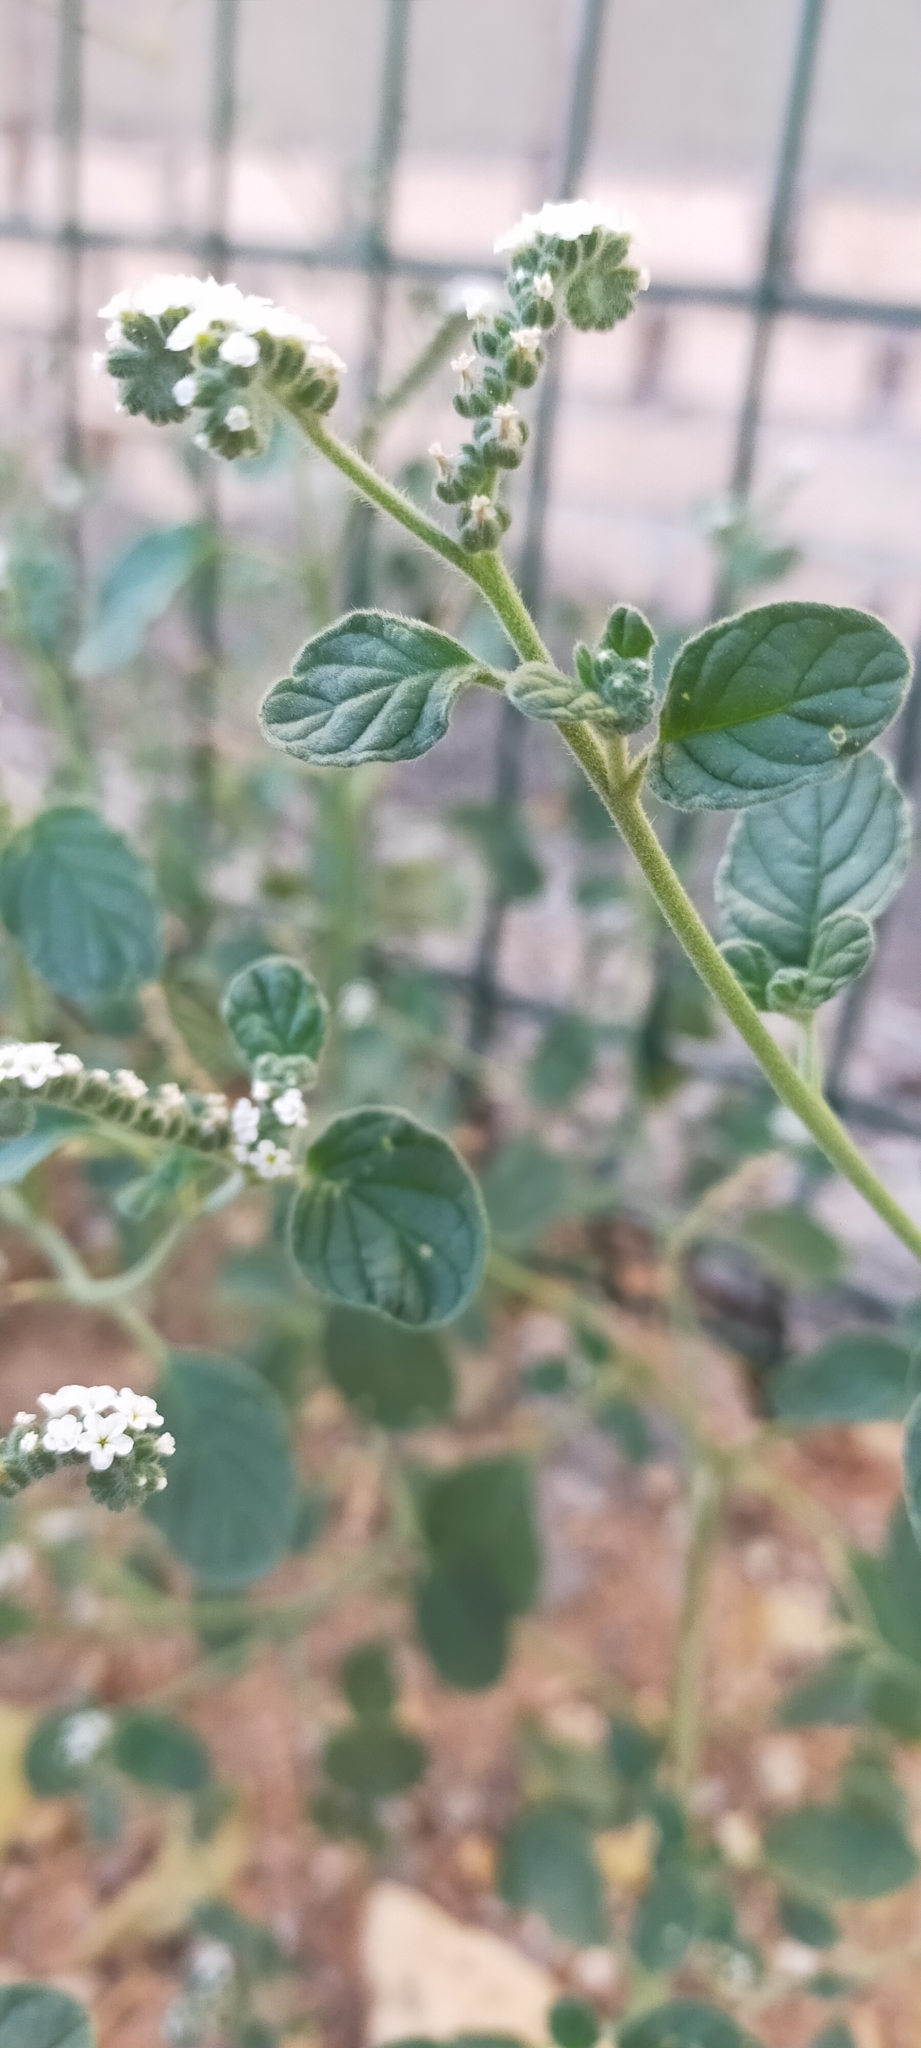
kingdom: Plantae
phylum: Tracheophyta
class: Magnoliopsida
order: Boraginales
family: Heliotropiaceae
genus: Heliotropium
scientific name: Heliotropium europaeum
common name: European heliotrope
